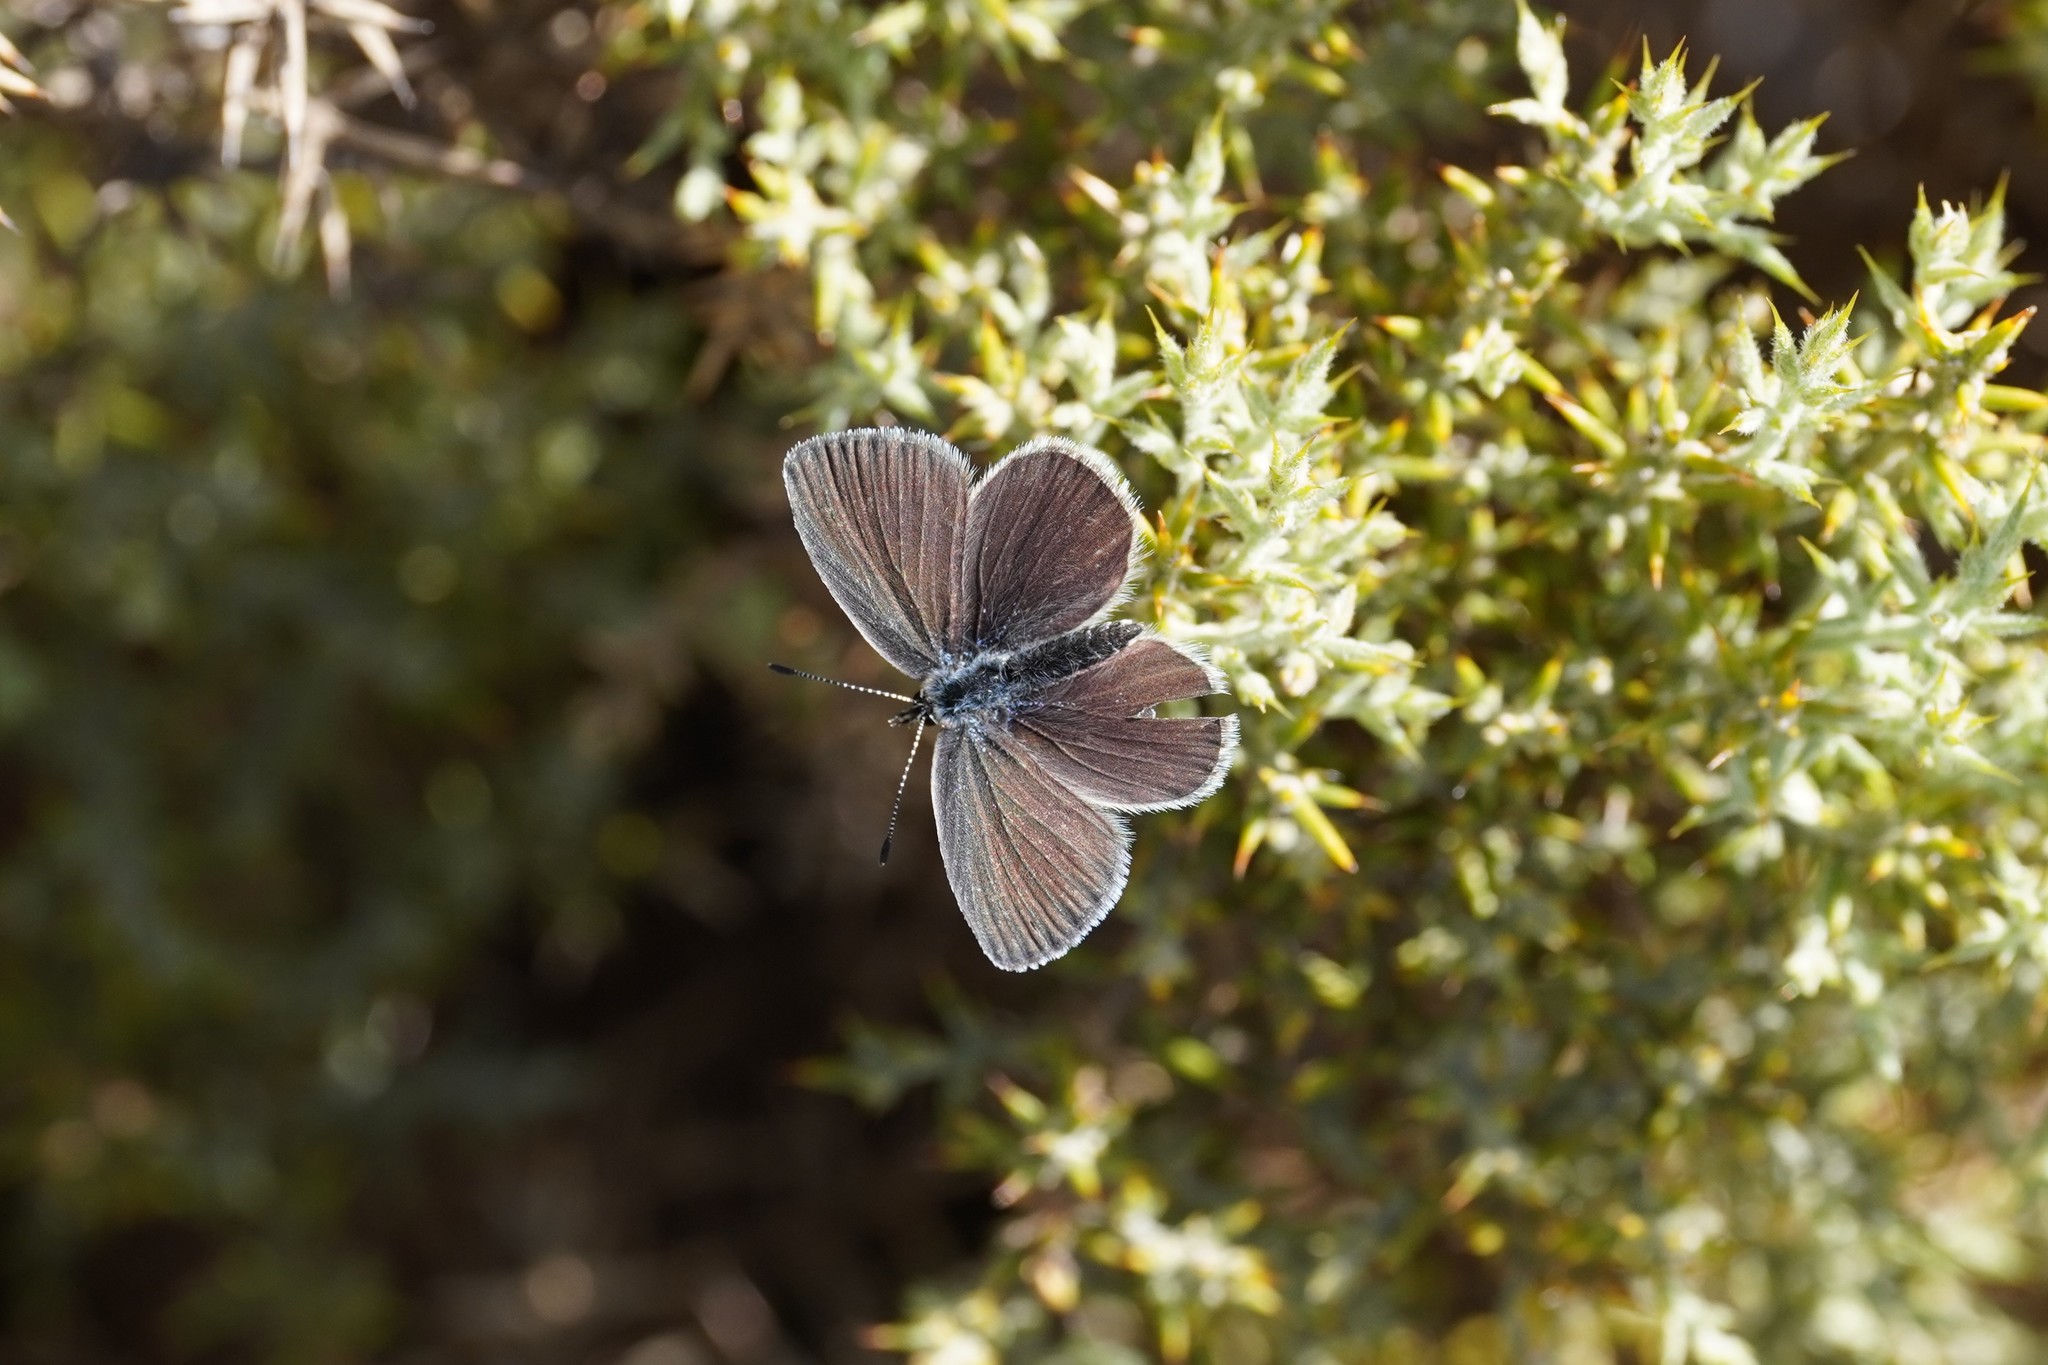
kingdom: Animalia
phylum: Arthropoda
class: Insecta
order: Lepidoptera
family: Lycaenidae
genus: Cupido
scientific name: Cupido lorquinii
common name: Lorquin’s blue
